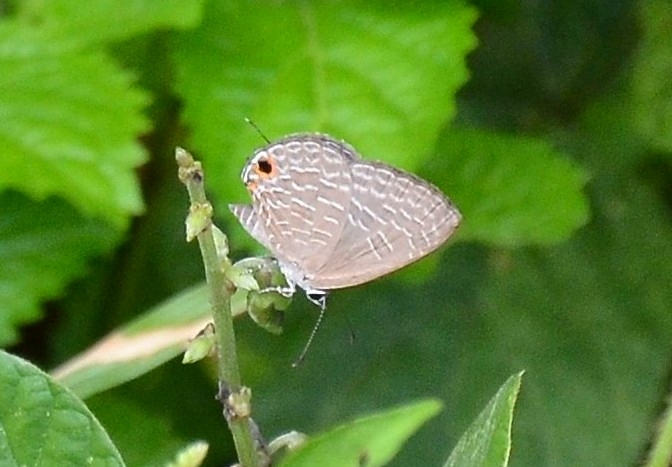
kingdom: Animalia
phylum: Arthropoda
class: Insecta
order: Lepidoptera
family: Lycaenidae
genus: Jamides
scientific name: Jamides bochus
